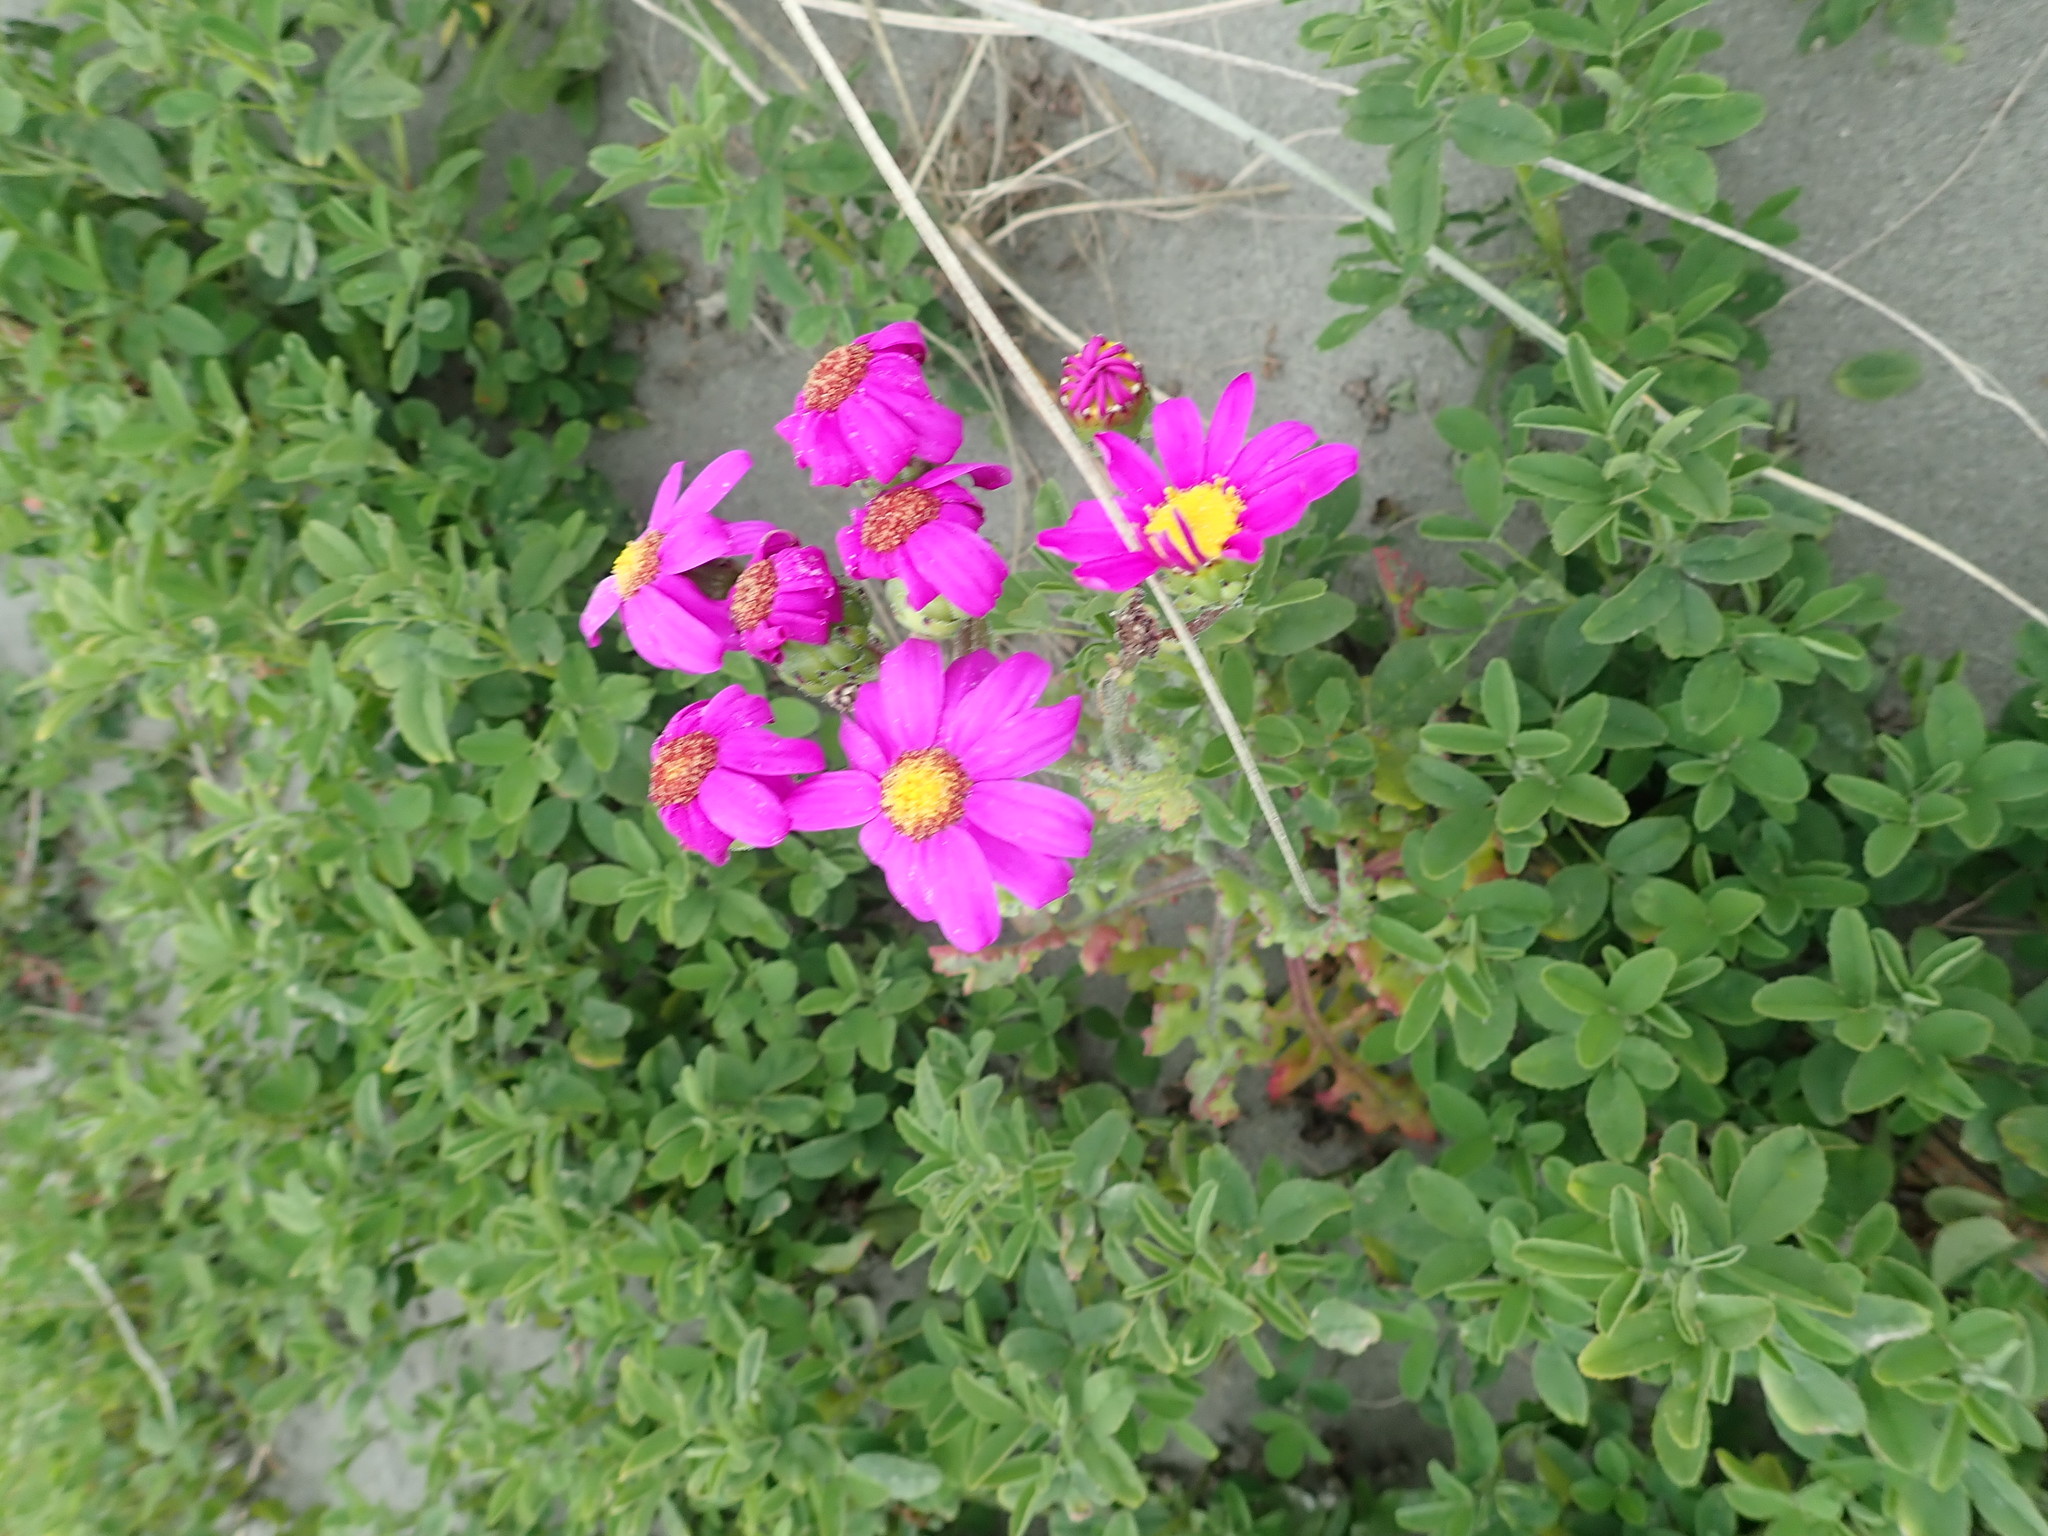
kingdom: Plantae
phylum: Tracheophyta
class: Magnoliopsida
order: Asterales
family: Asteraceae
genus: Senecio
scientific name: Senecio elegans
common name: Purple groundsel
